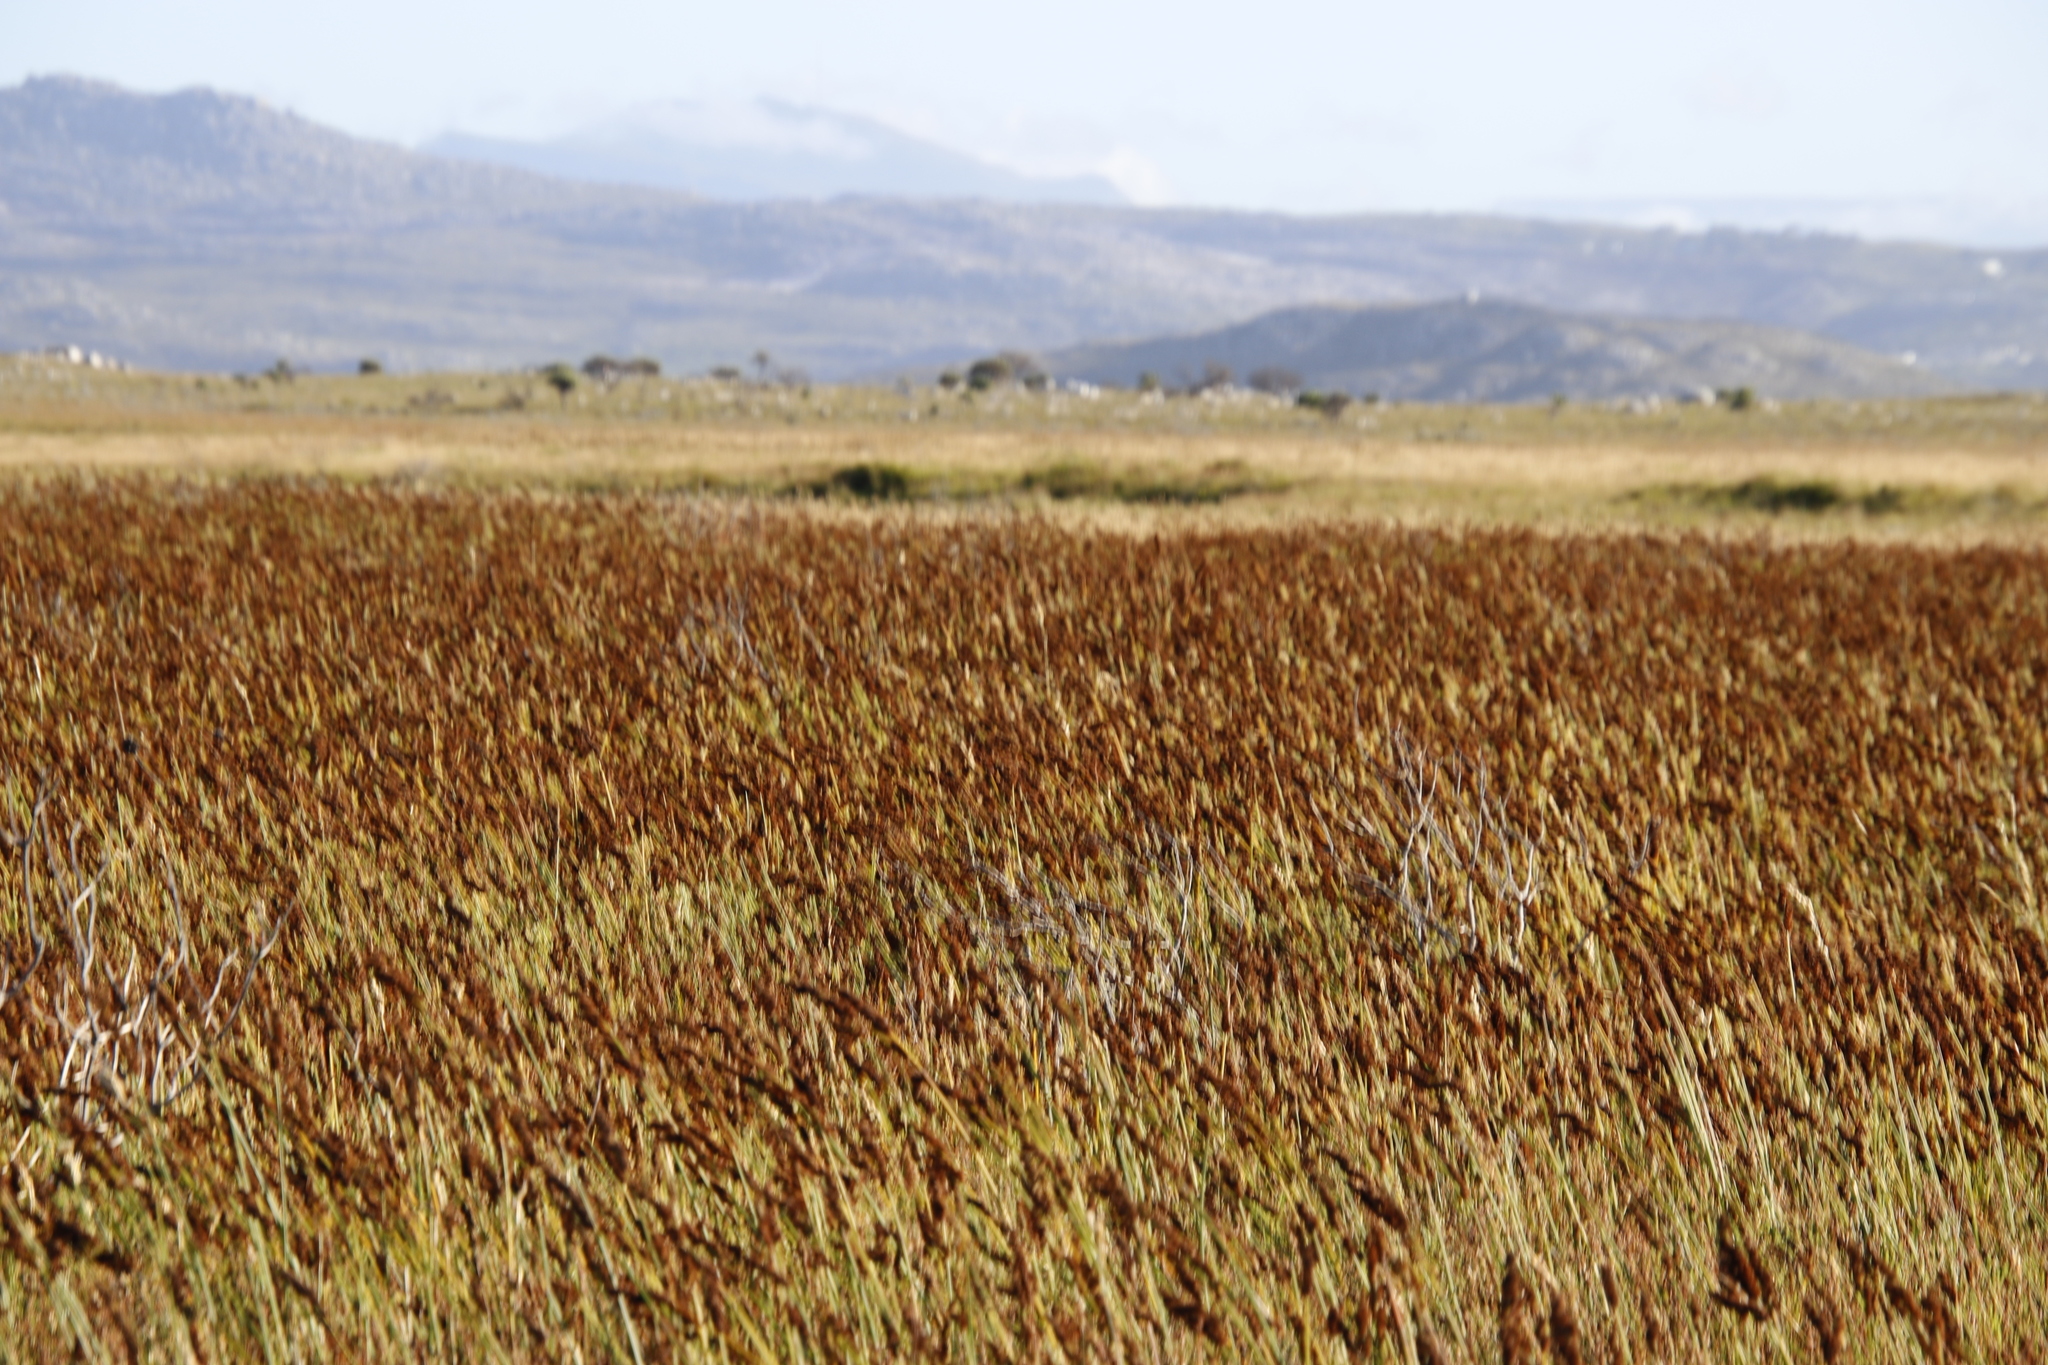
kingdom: Plantae
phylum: Tracheophyta
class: Liliopsida
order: Poales
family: Restionaceae
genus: Elegia
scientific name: Elegia cuspidata
